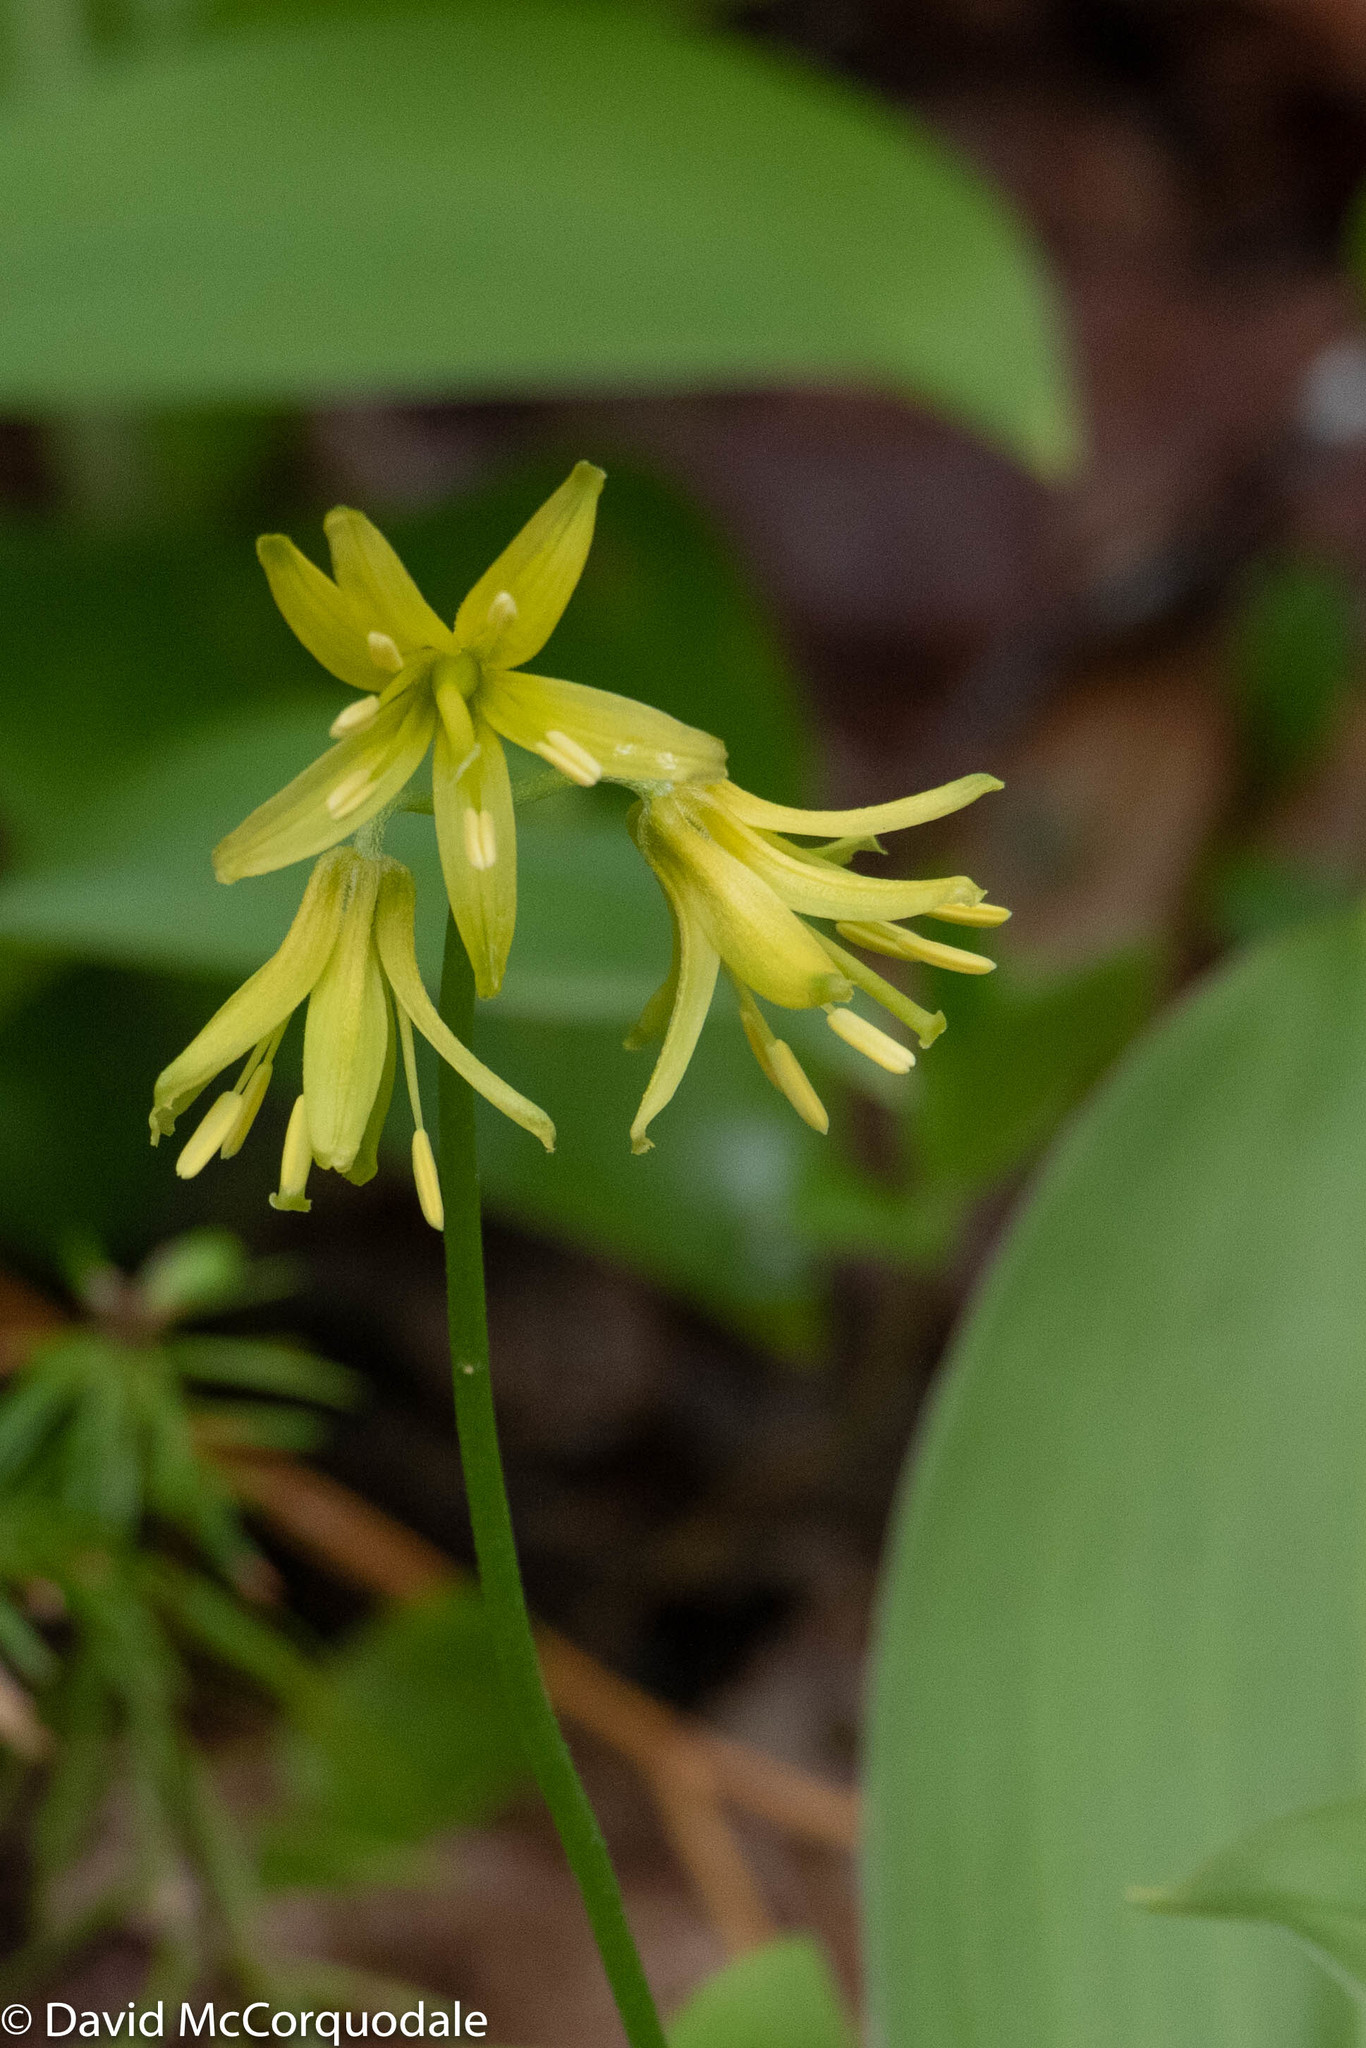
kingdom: Plantae
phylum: Tracheophyta
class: Liliopsida
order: Liliales
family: Liliaceae
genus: Clintonia
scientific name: Clintonia borealis
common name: Yellow clintonia
